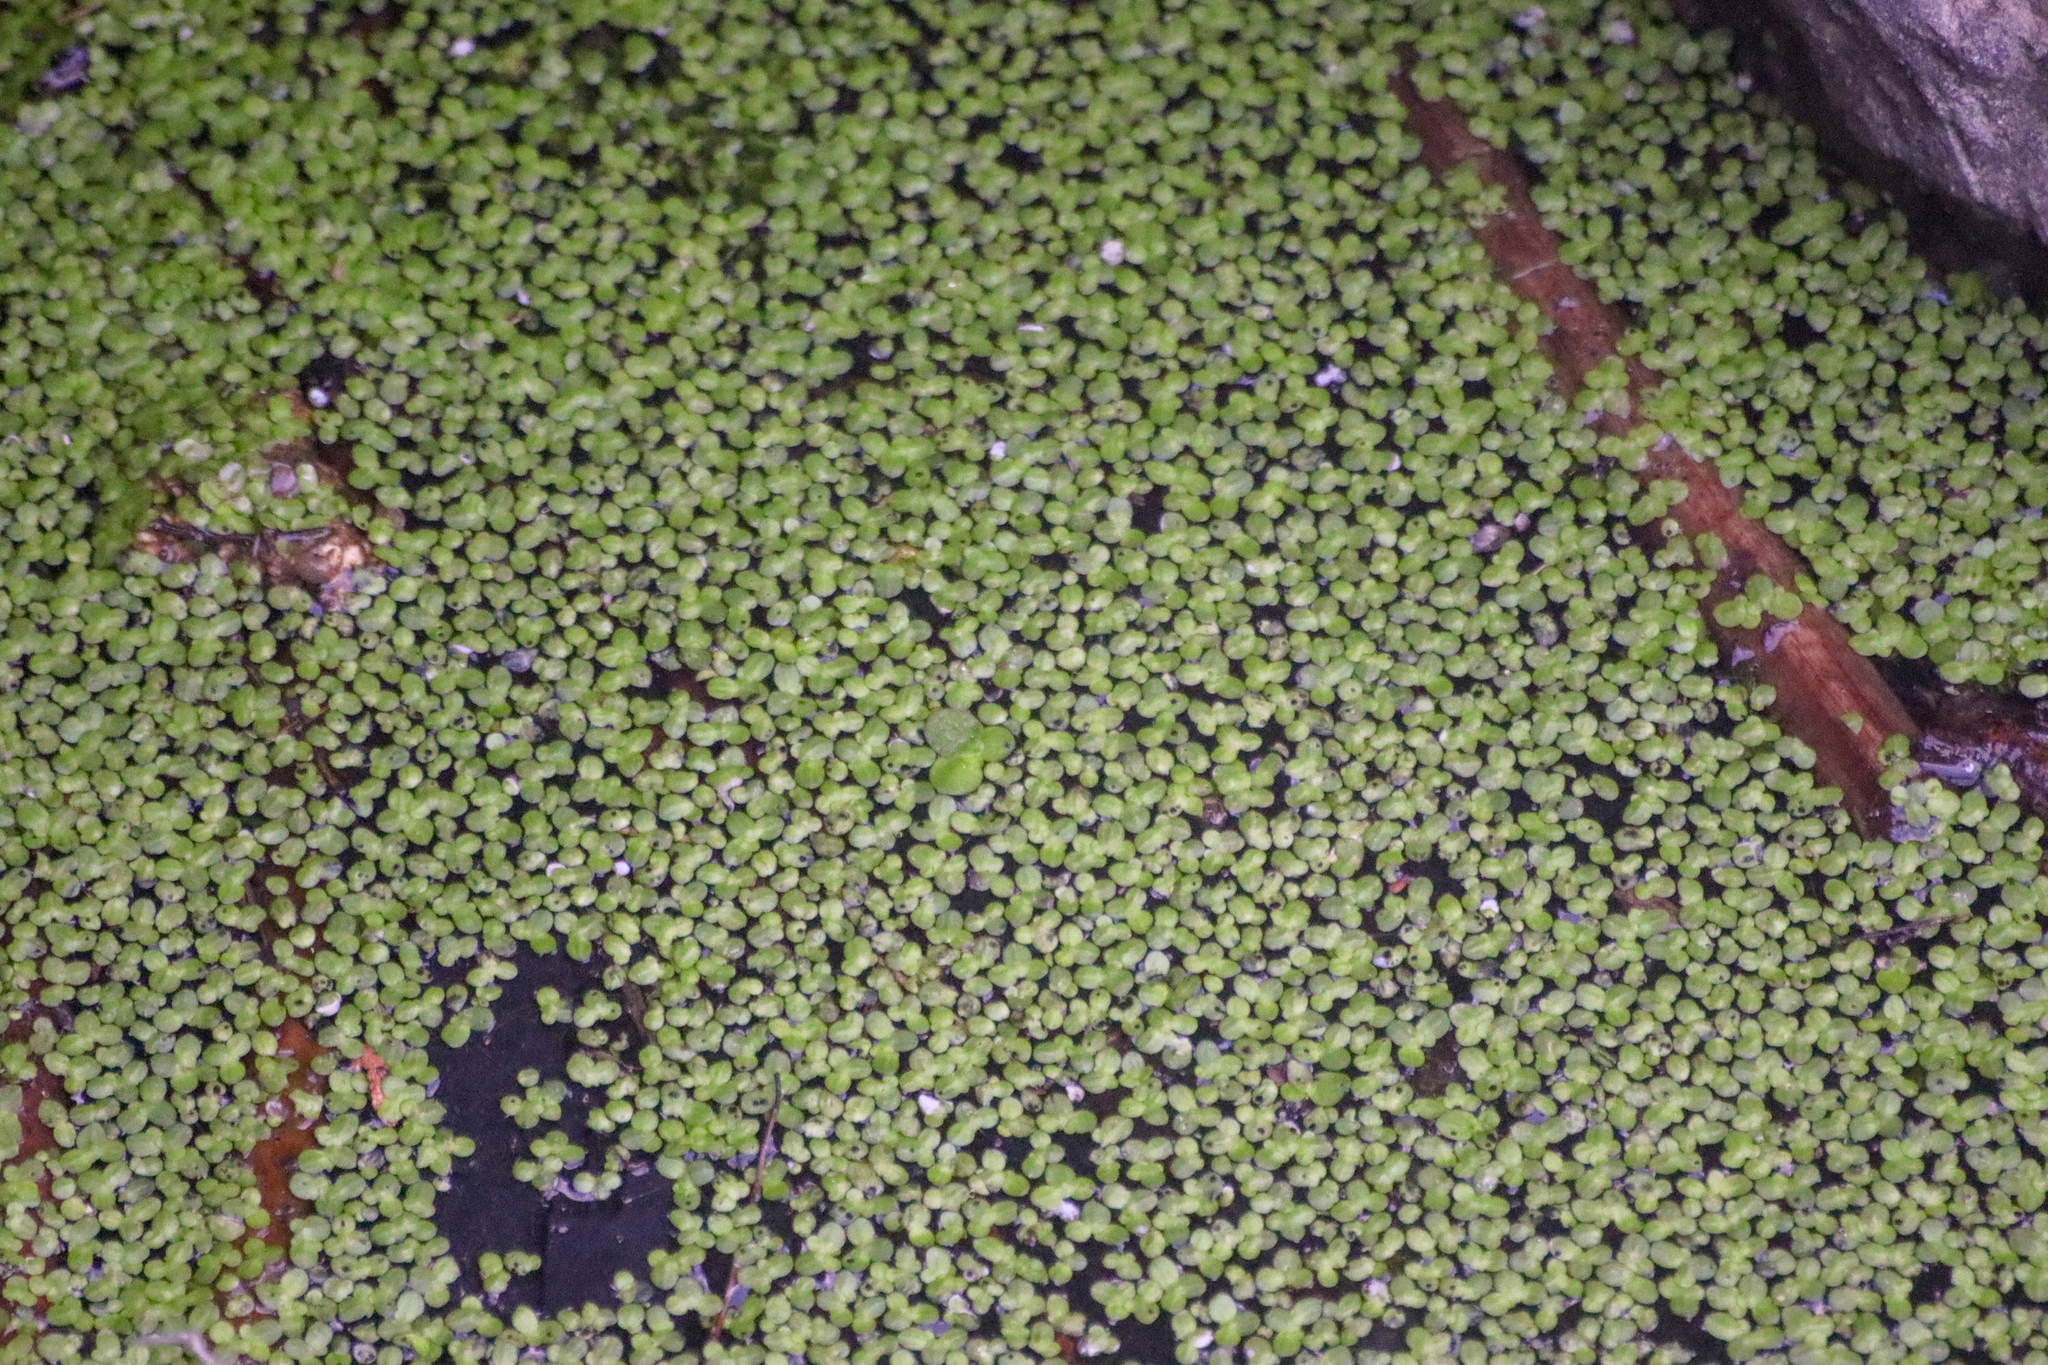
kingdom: Plantae
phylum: Tracheophyta
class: Liliopsida
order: Alismatales
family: Araceae
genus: Lemna
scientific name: Lemna minor
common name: Common duckweed
